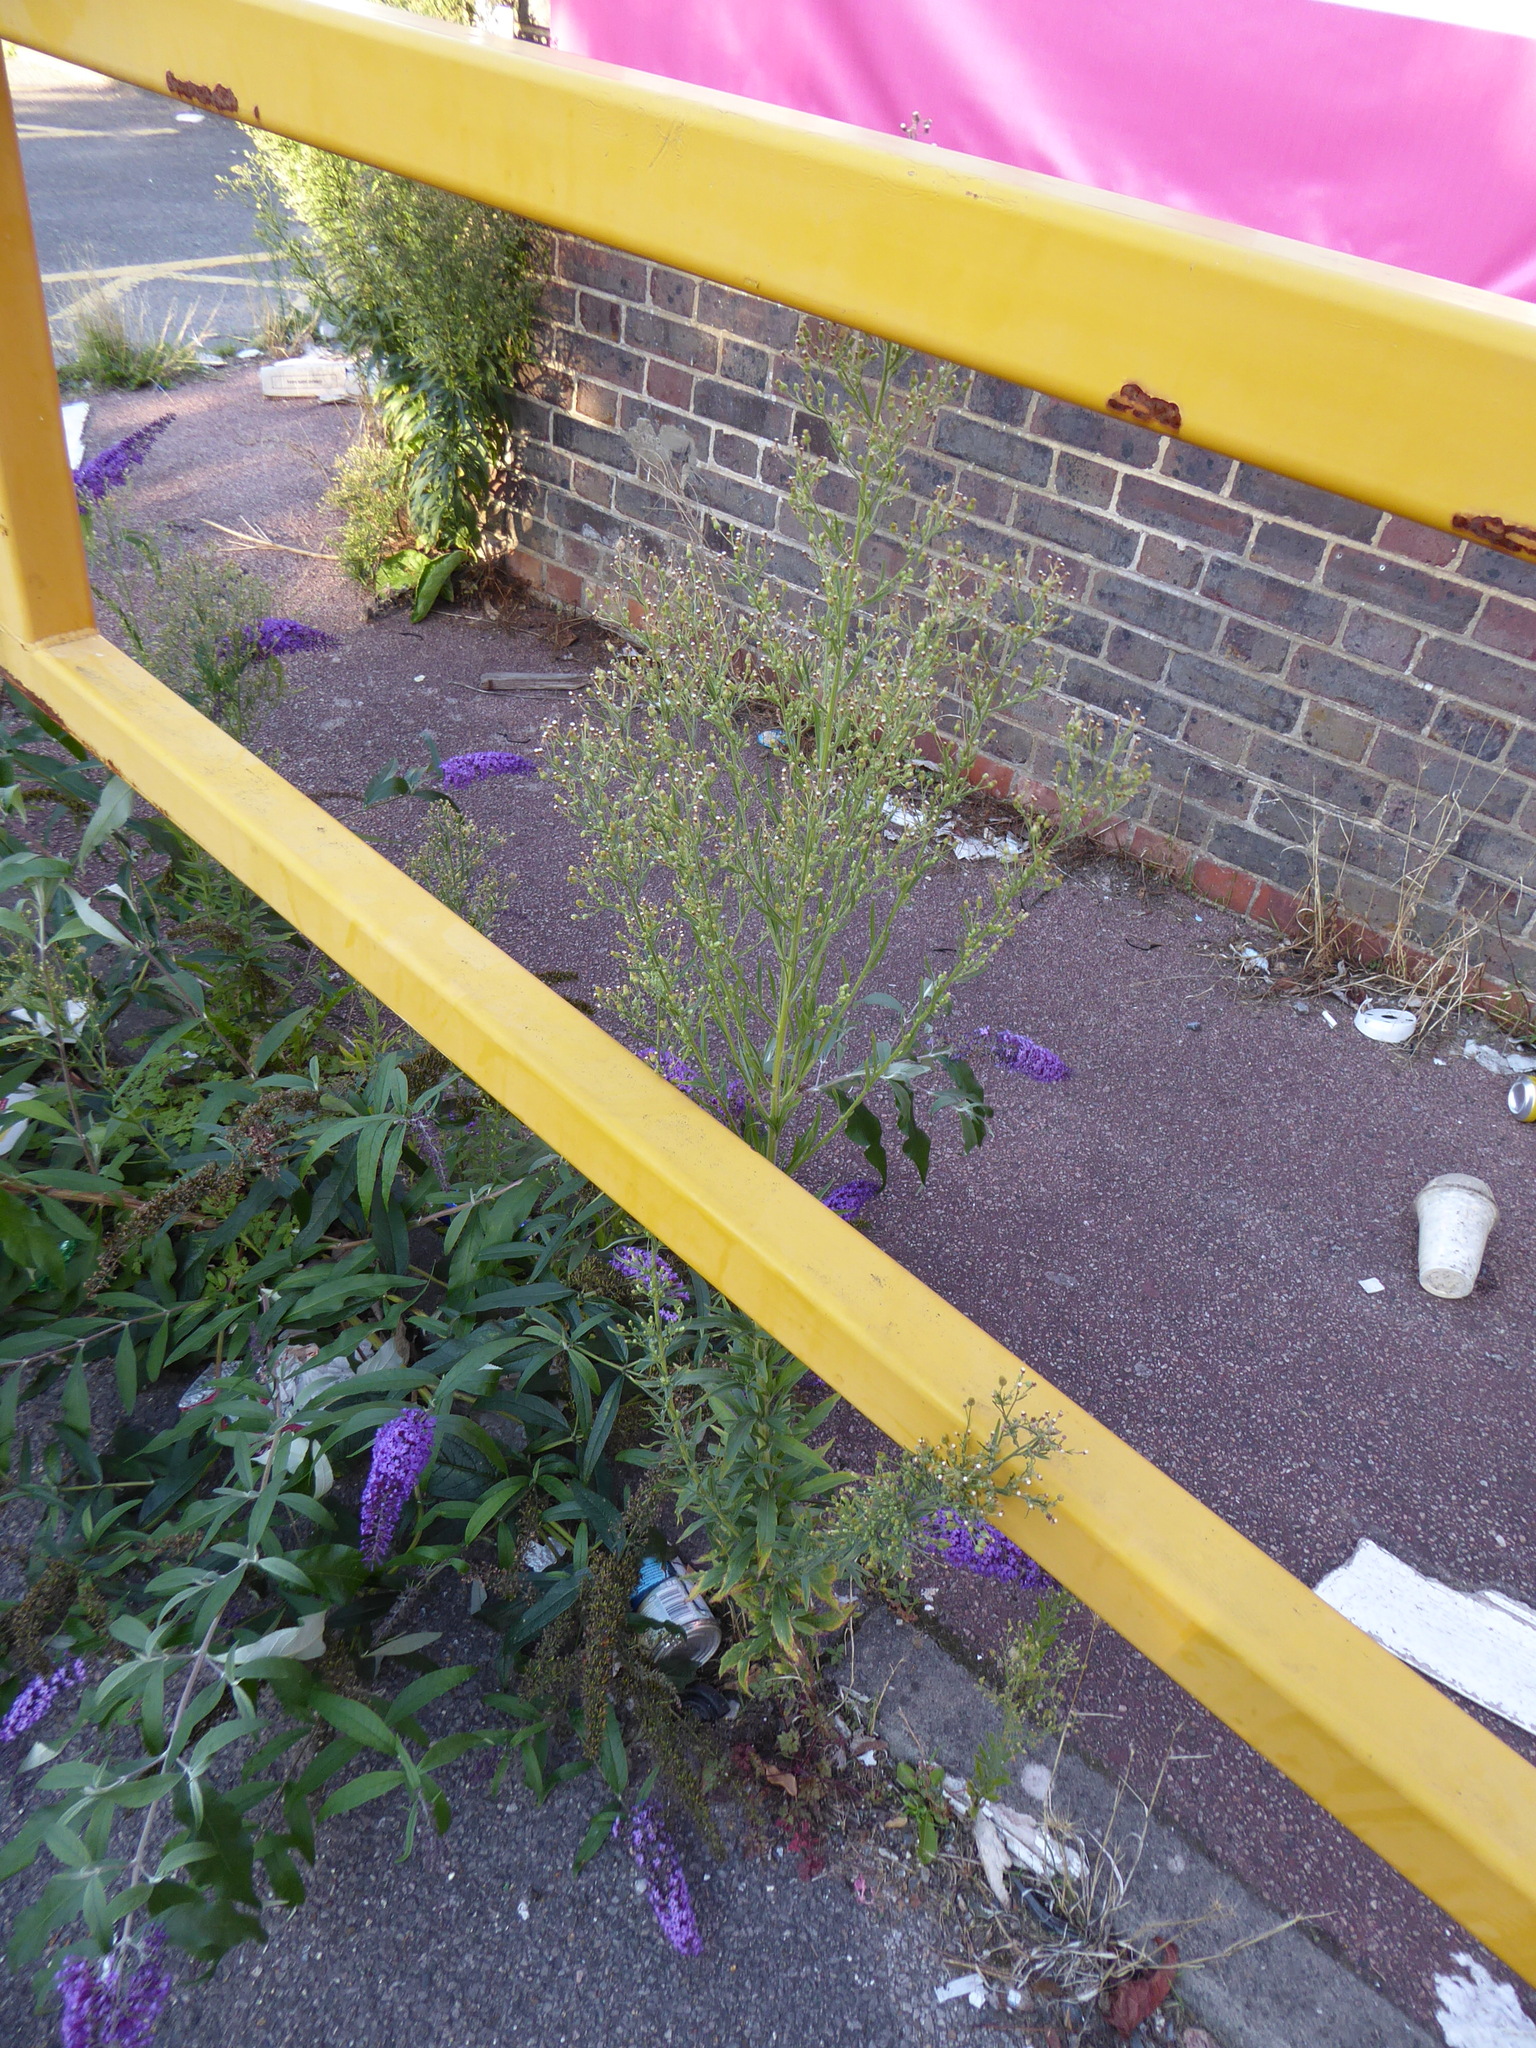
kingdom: Plantae
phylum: Tracheophyta
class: Magnoliopsida
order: Asterales
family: Asteraceae
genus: Erigeron
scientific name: Erigeron sumatrensis
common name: Daisy
